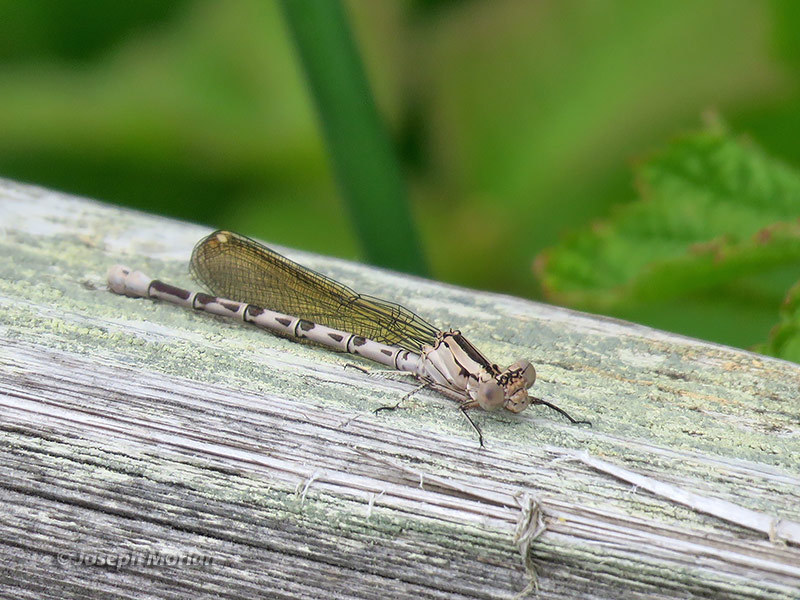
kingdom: Animalia
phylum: Arthropoda
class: Insecta
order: Odonata
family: Coenagrionidae
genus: Argia
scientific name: Argia vivida
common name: Vivid dancer
